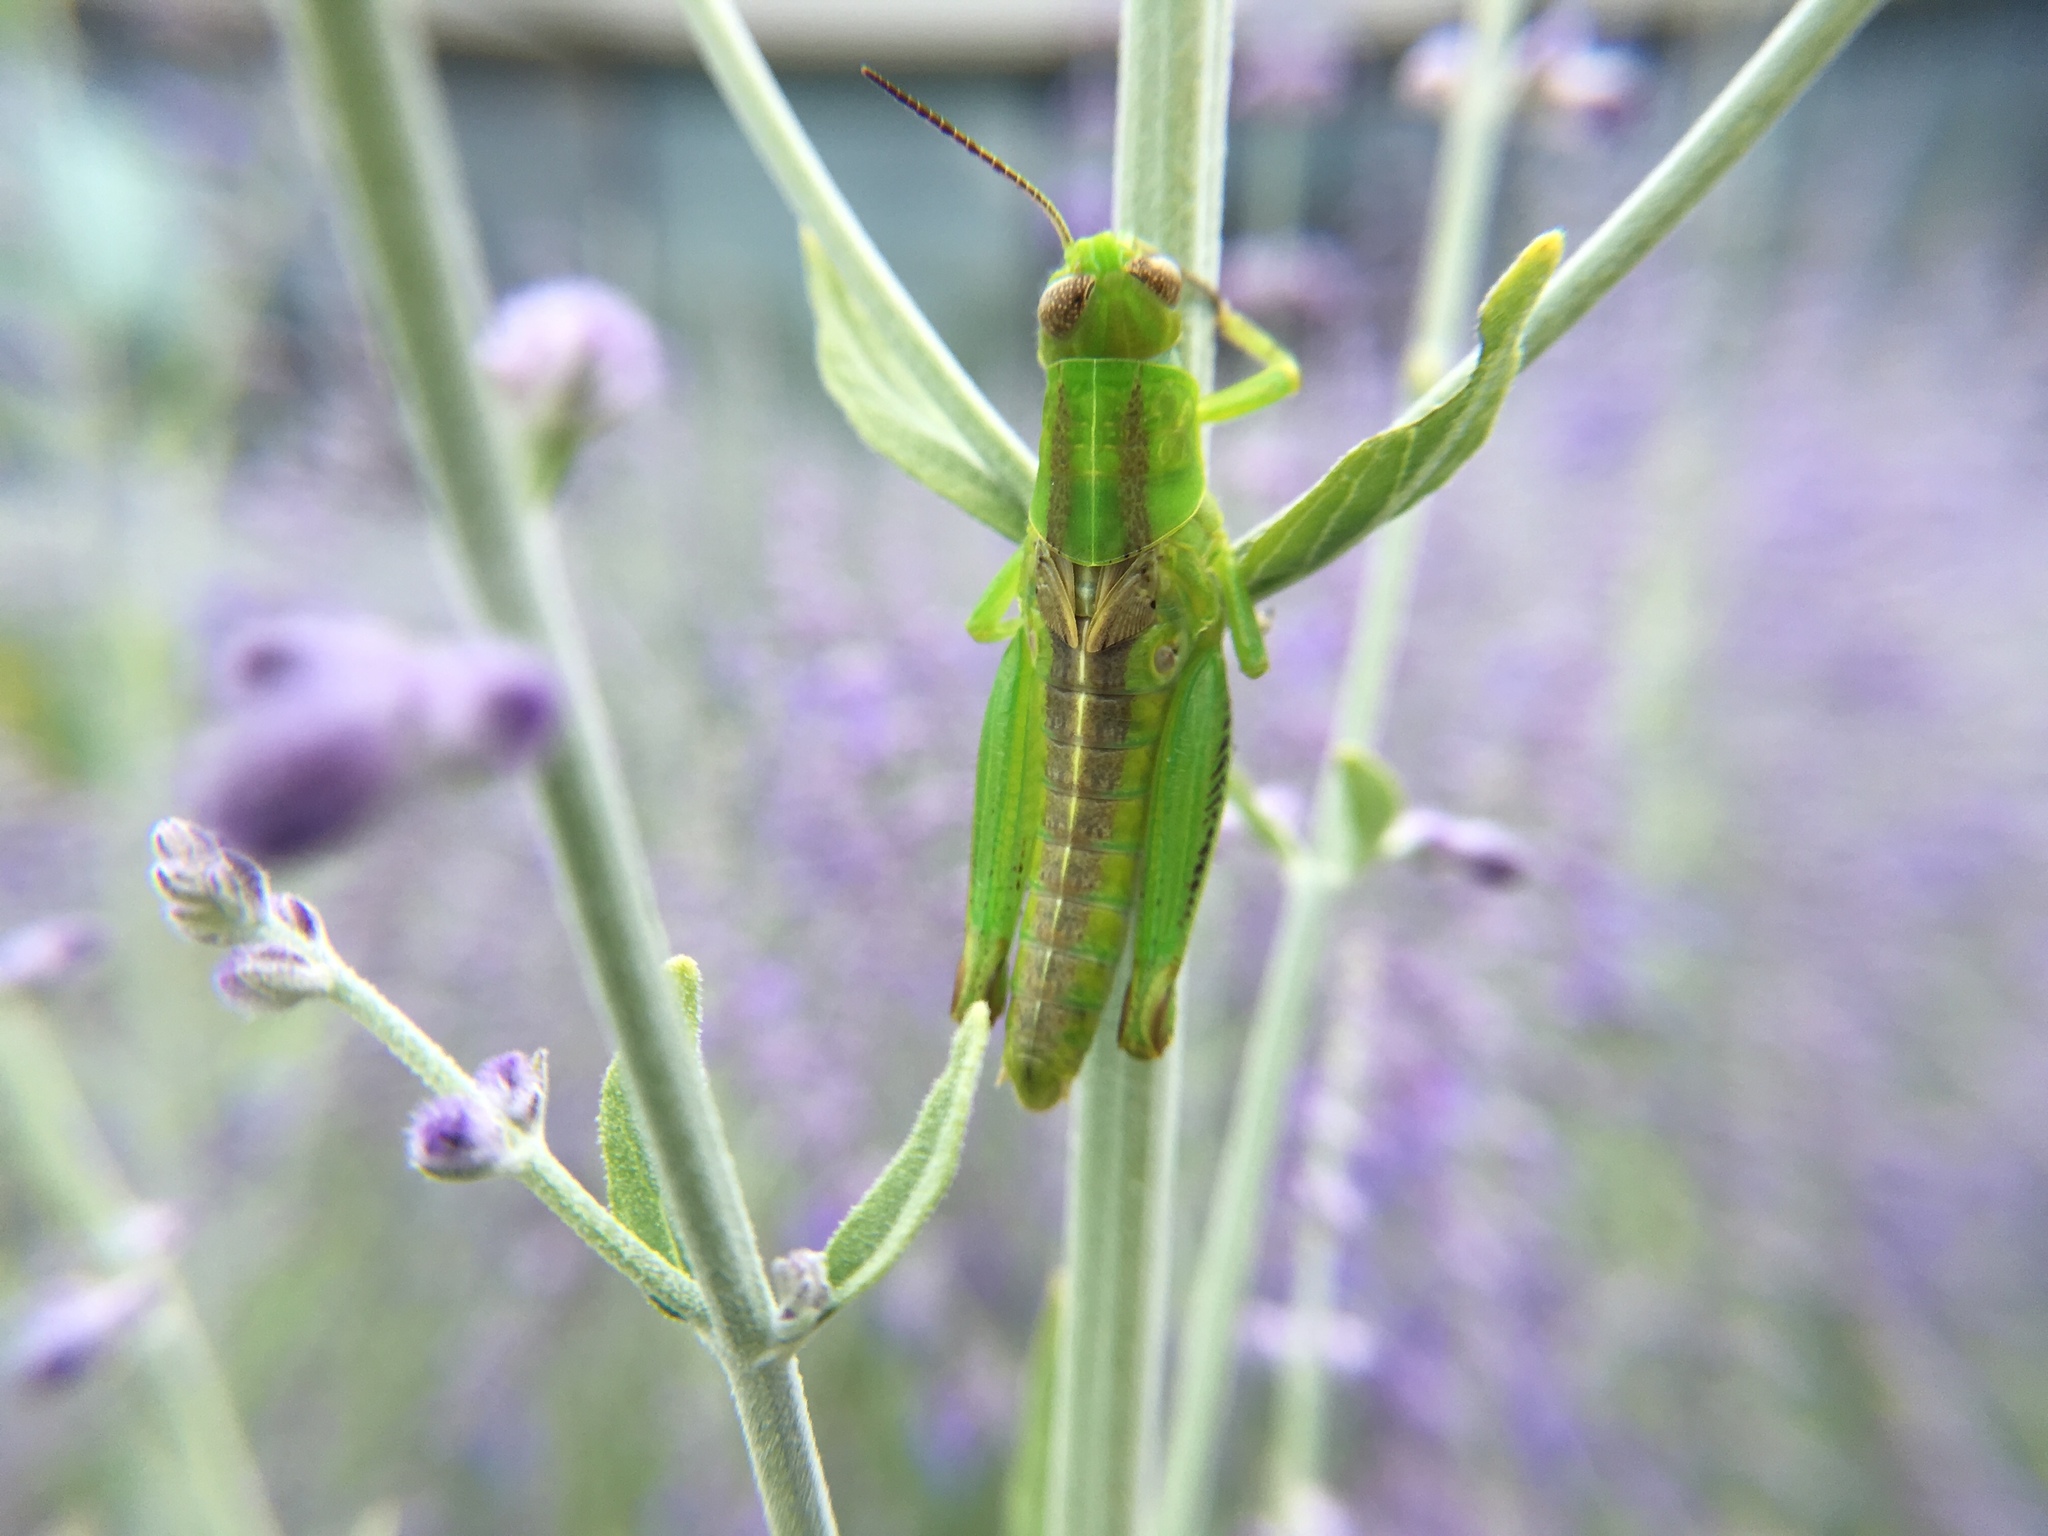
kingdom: Animalia
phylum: Arthropoda
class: Insecta
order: Orthoptera
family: Acrididae
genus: Melanoplus
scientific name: Melanoplus differentialis
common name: Differential grasshopper
